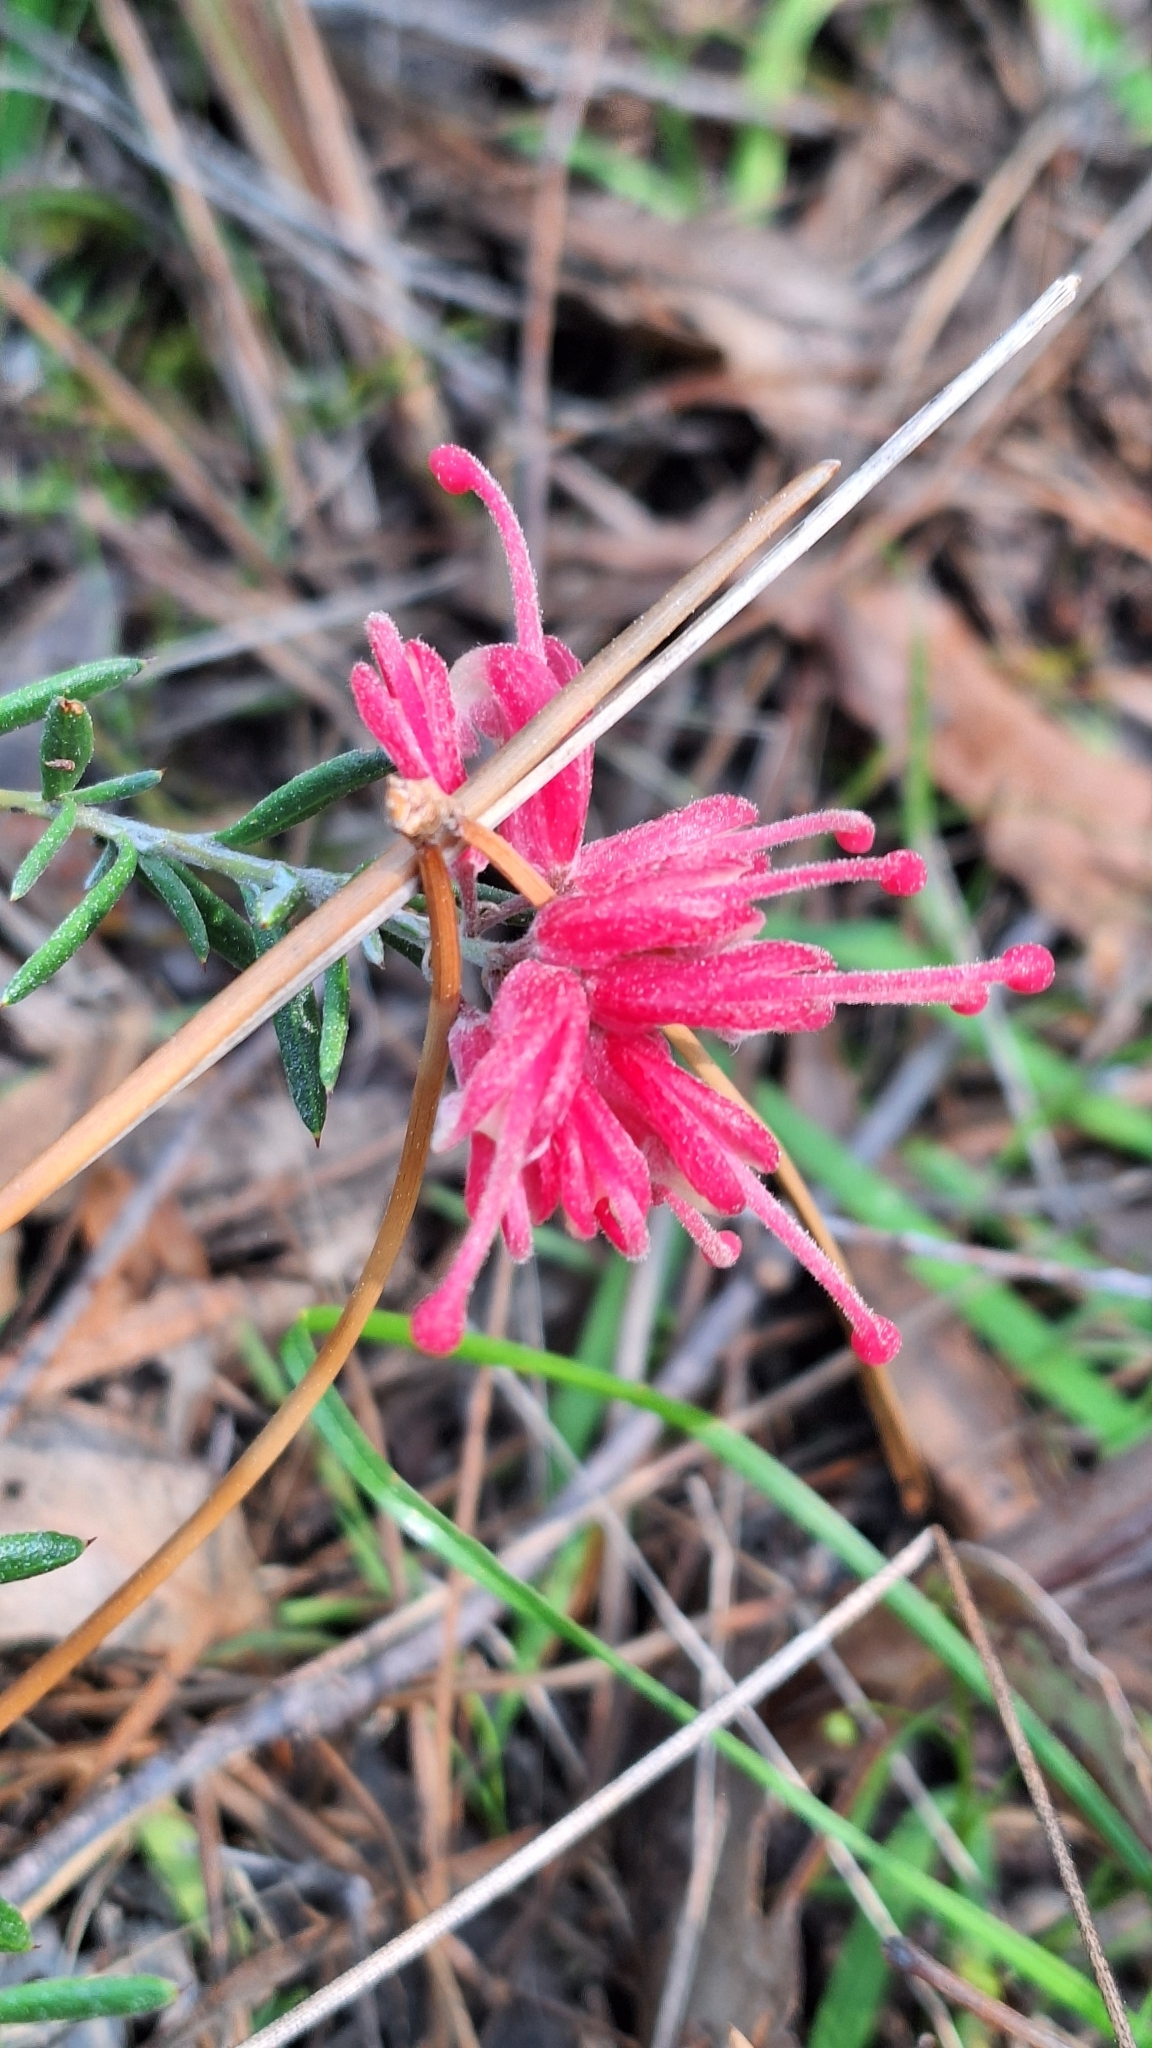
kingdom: Plantae
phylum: Tracheophyta
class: Magnoliopsida
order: Proteales
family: Proteaceae
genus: Grevillea
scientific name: Grevillea lavandulacea
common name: Lavender grevillea
